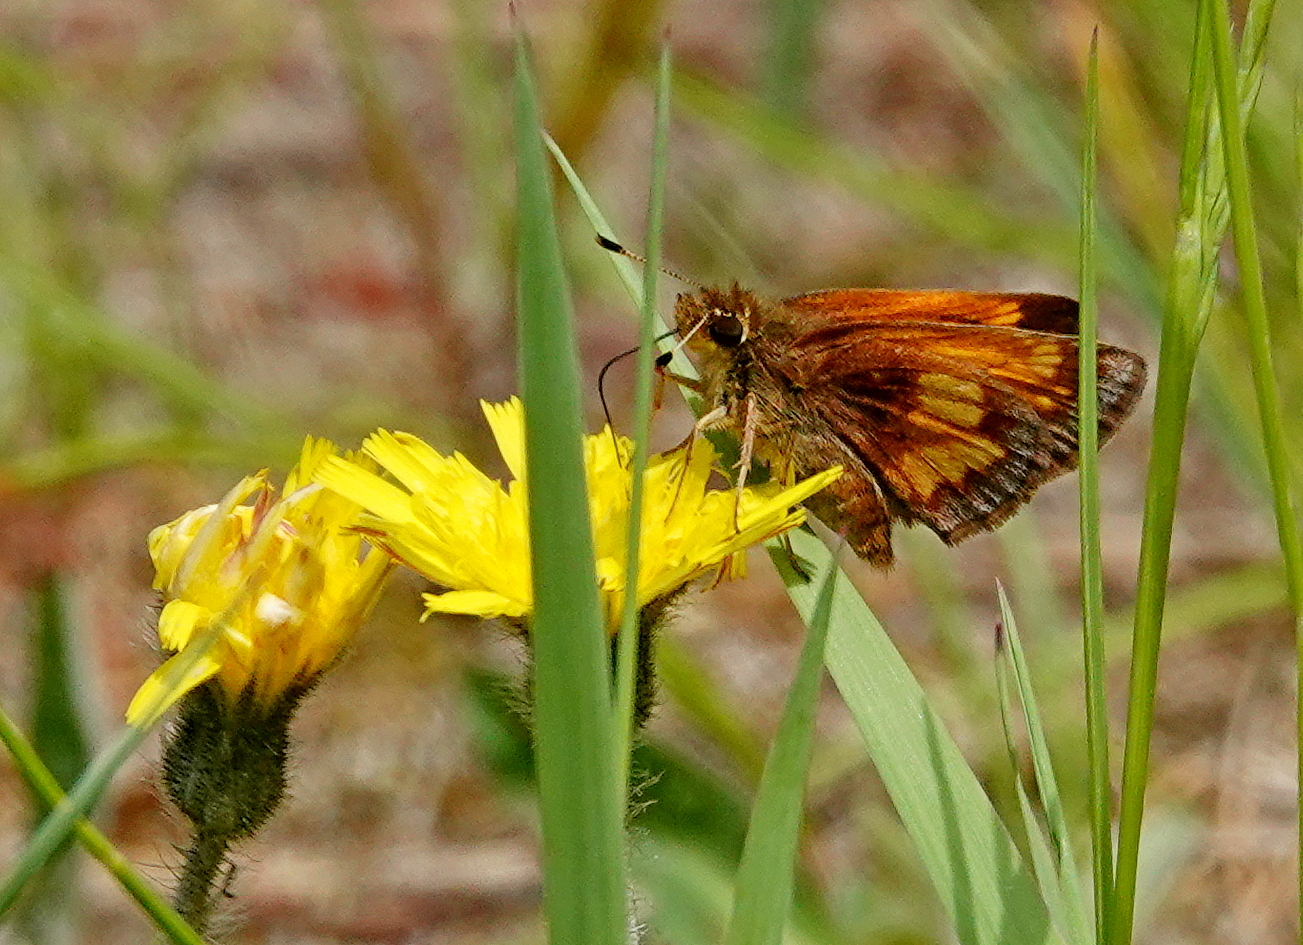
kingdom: Animalia
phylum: Arthropoda
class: Insecta
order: Lepidoptera
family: Hesperiidae
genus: Lon
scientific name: Lon hobomok
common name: Hobomok skipper
